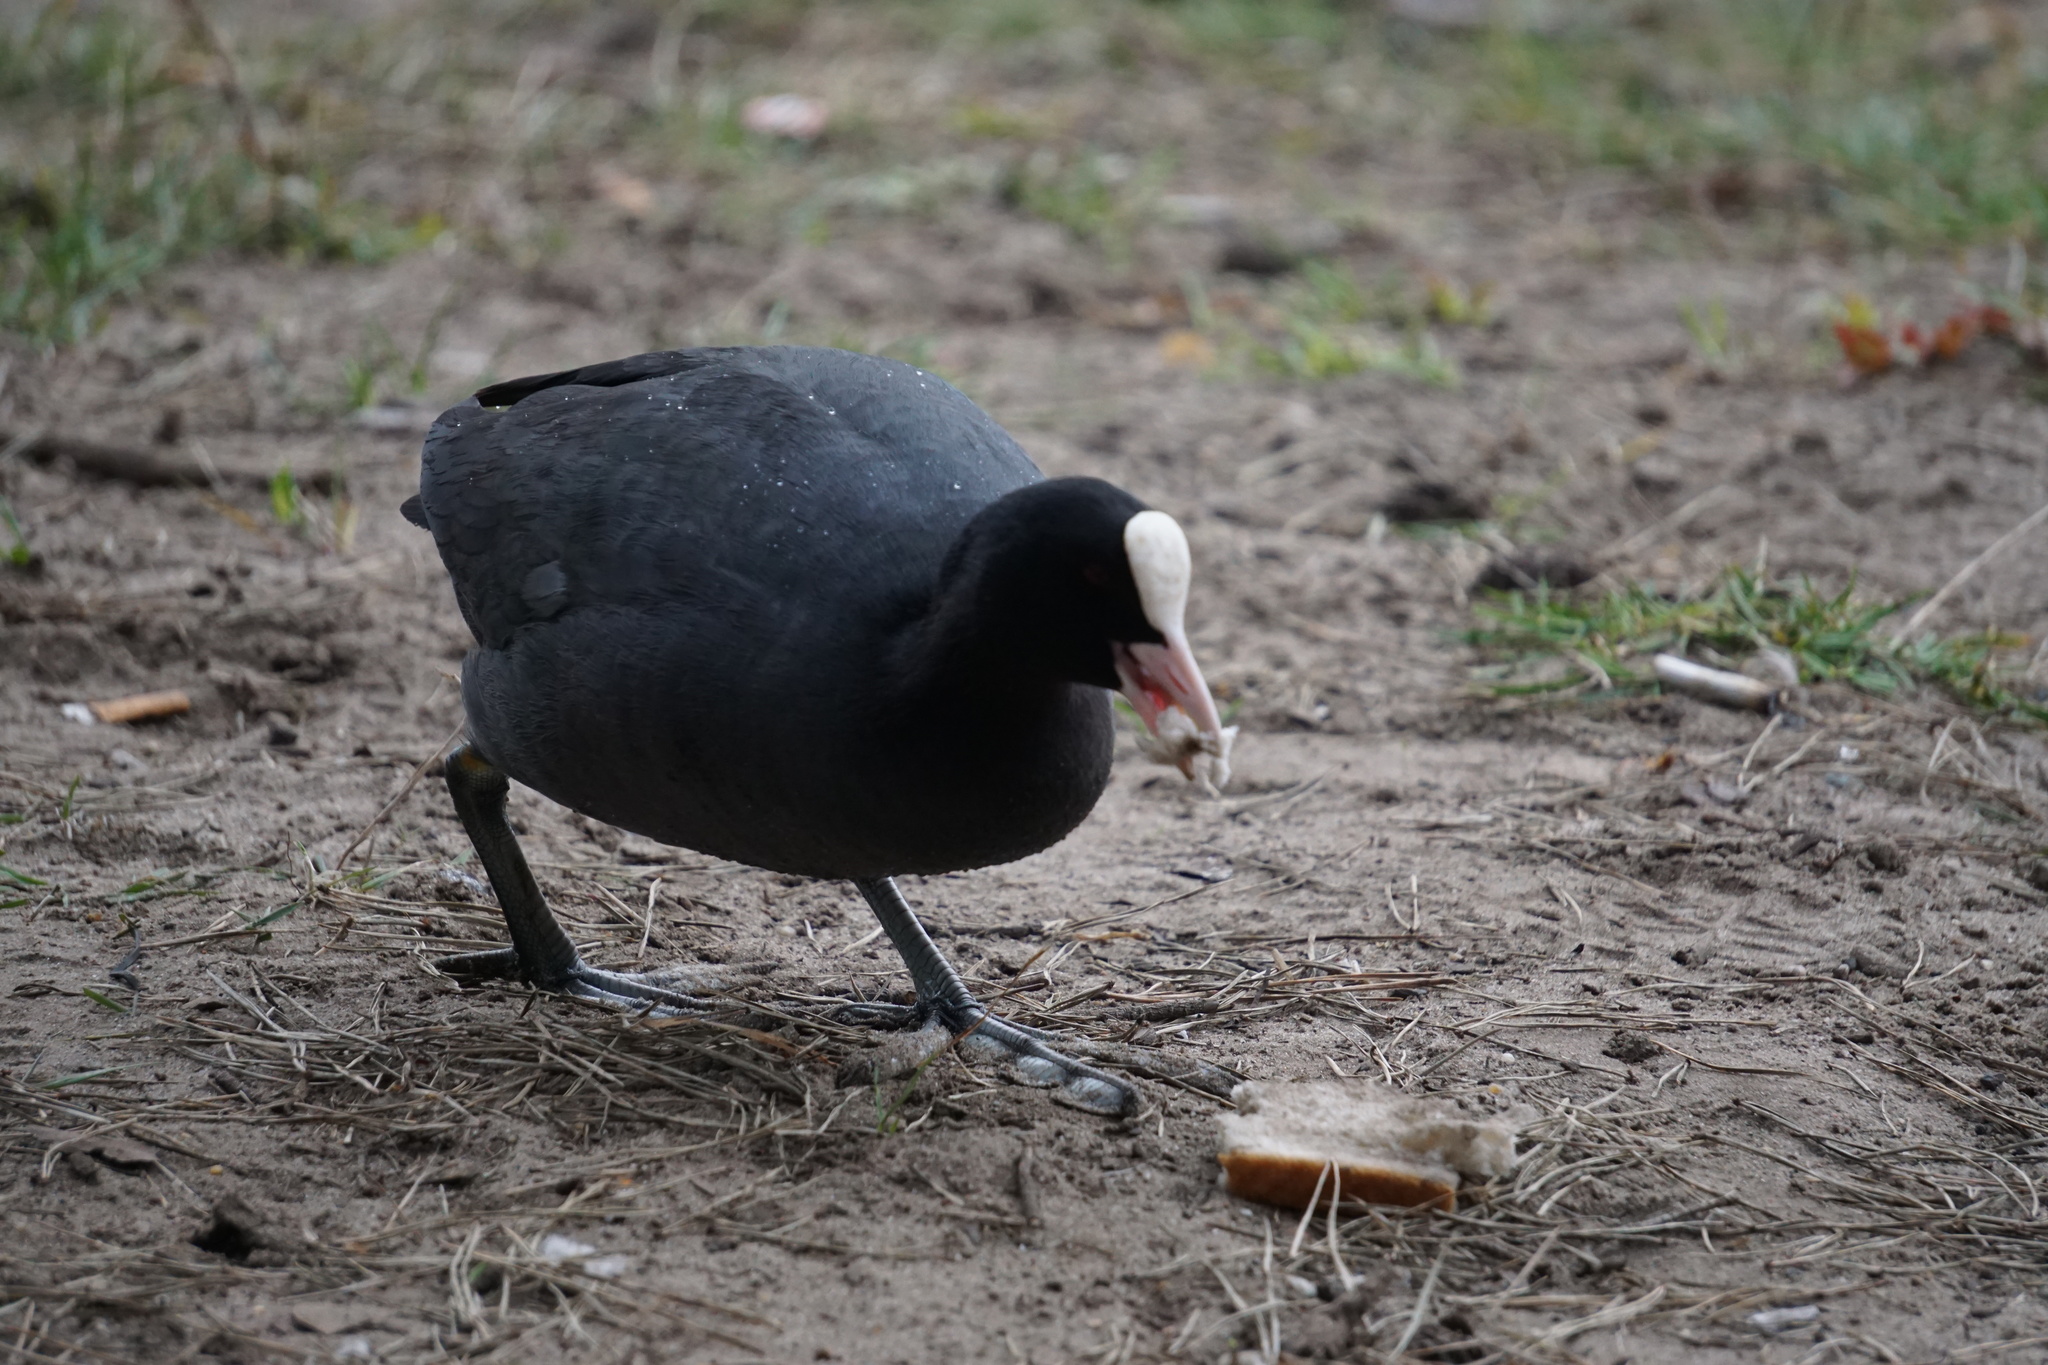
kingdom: Animalia
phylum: Chordata
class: Aves
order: Gruiformes
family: Rallidae
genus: Fulica
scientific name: Fulica atra
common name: Eurasian coot
